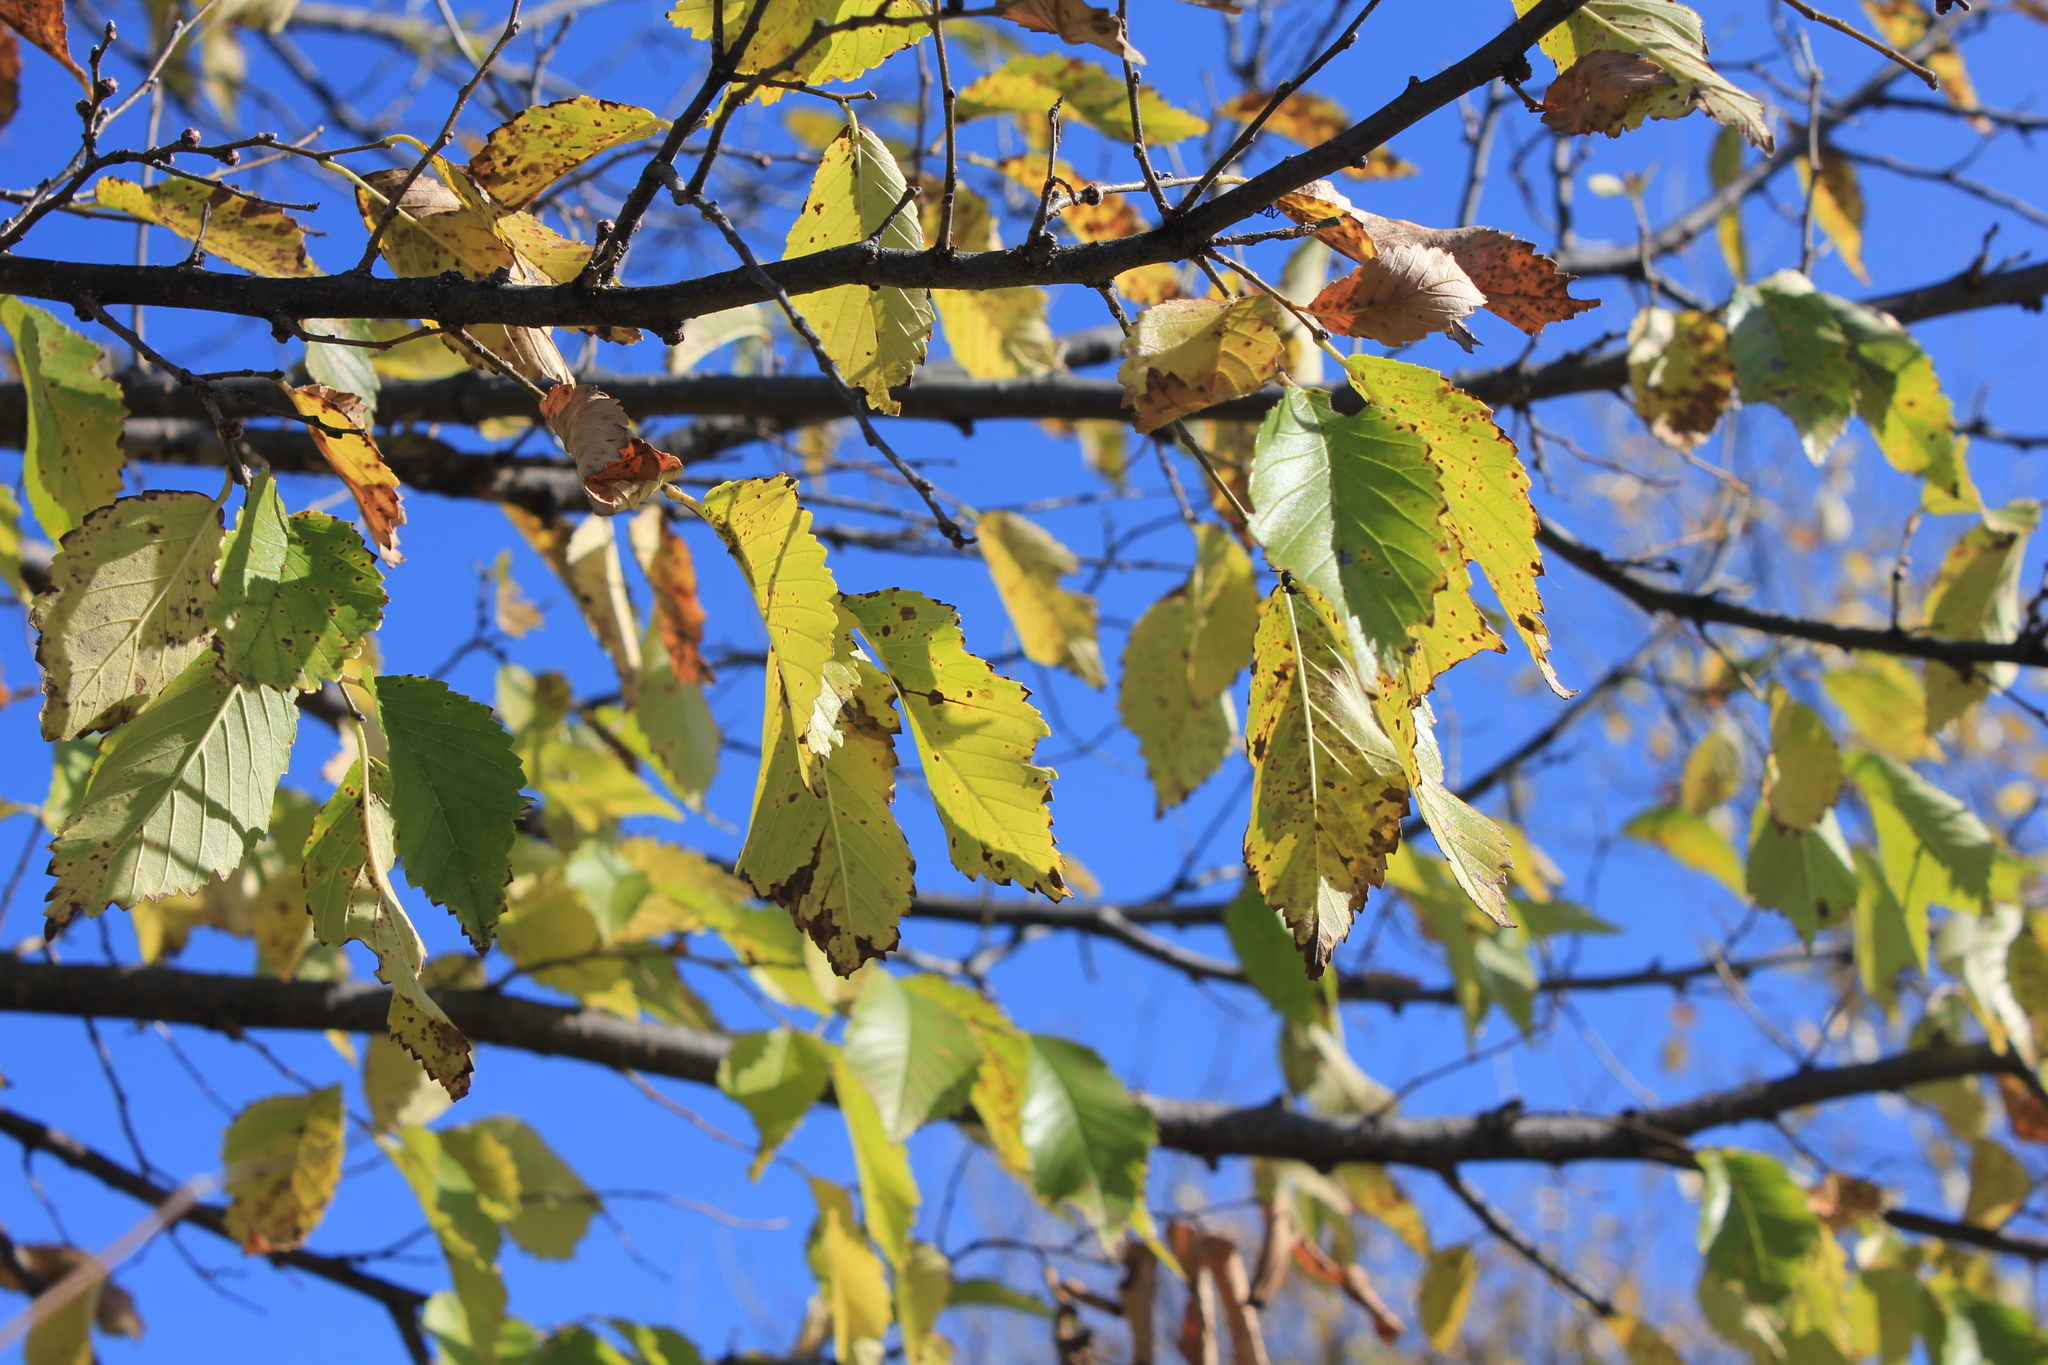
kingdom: Plantae
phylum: Tracheophyta
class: Magnoliopsida
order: Rosales
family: Ulmaceae
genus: Ulmus
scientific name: Ulmus pumila
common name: Siberian elm
